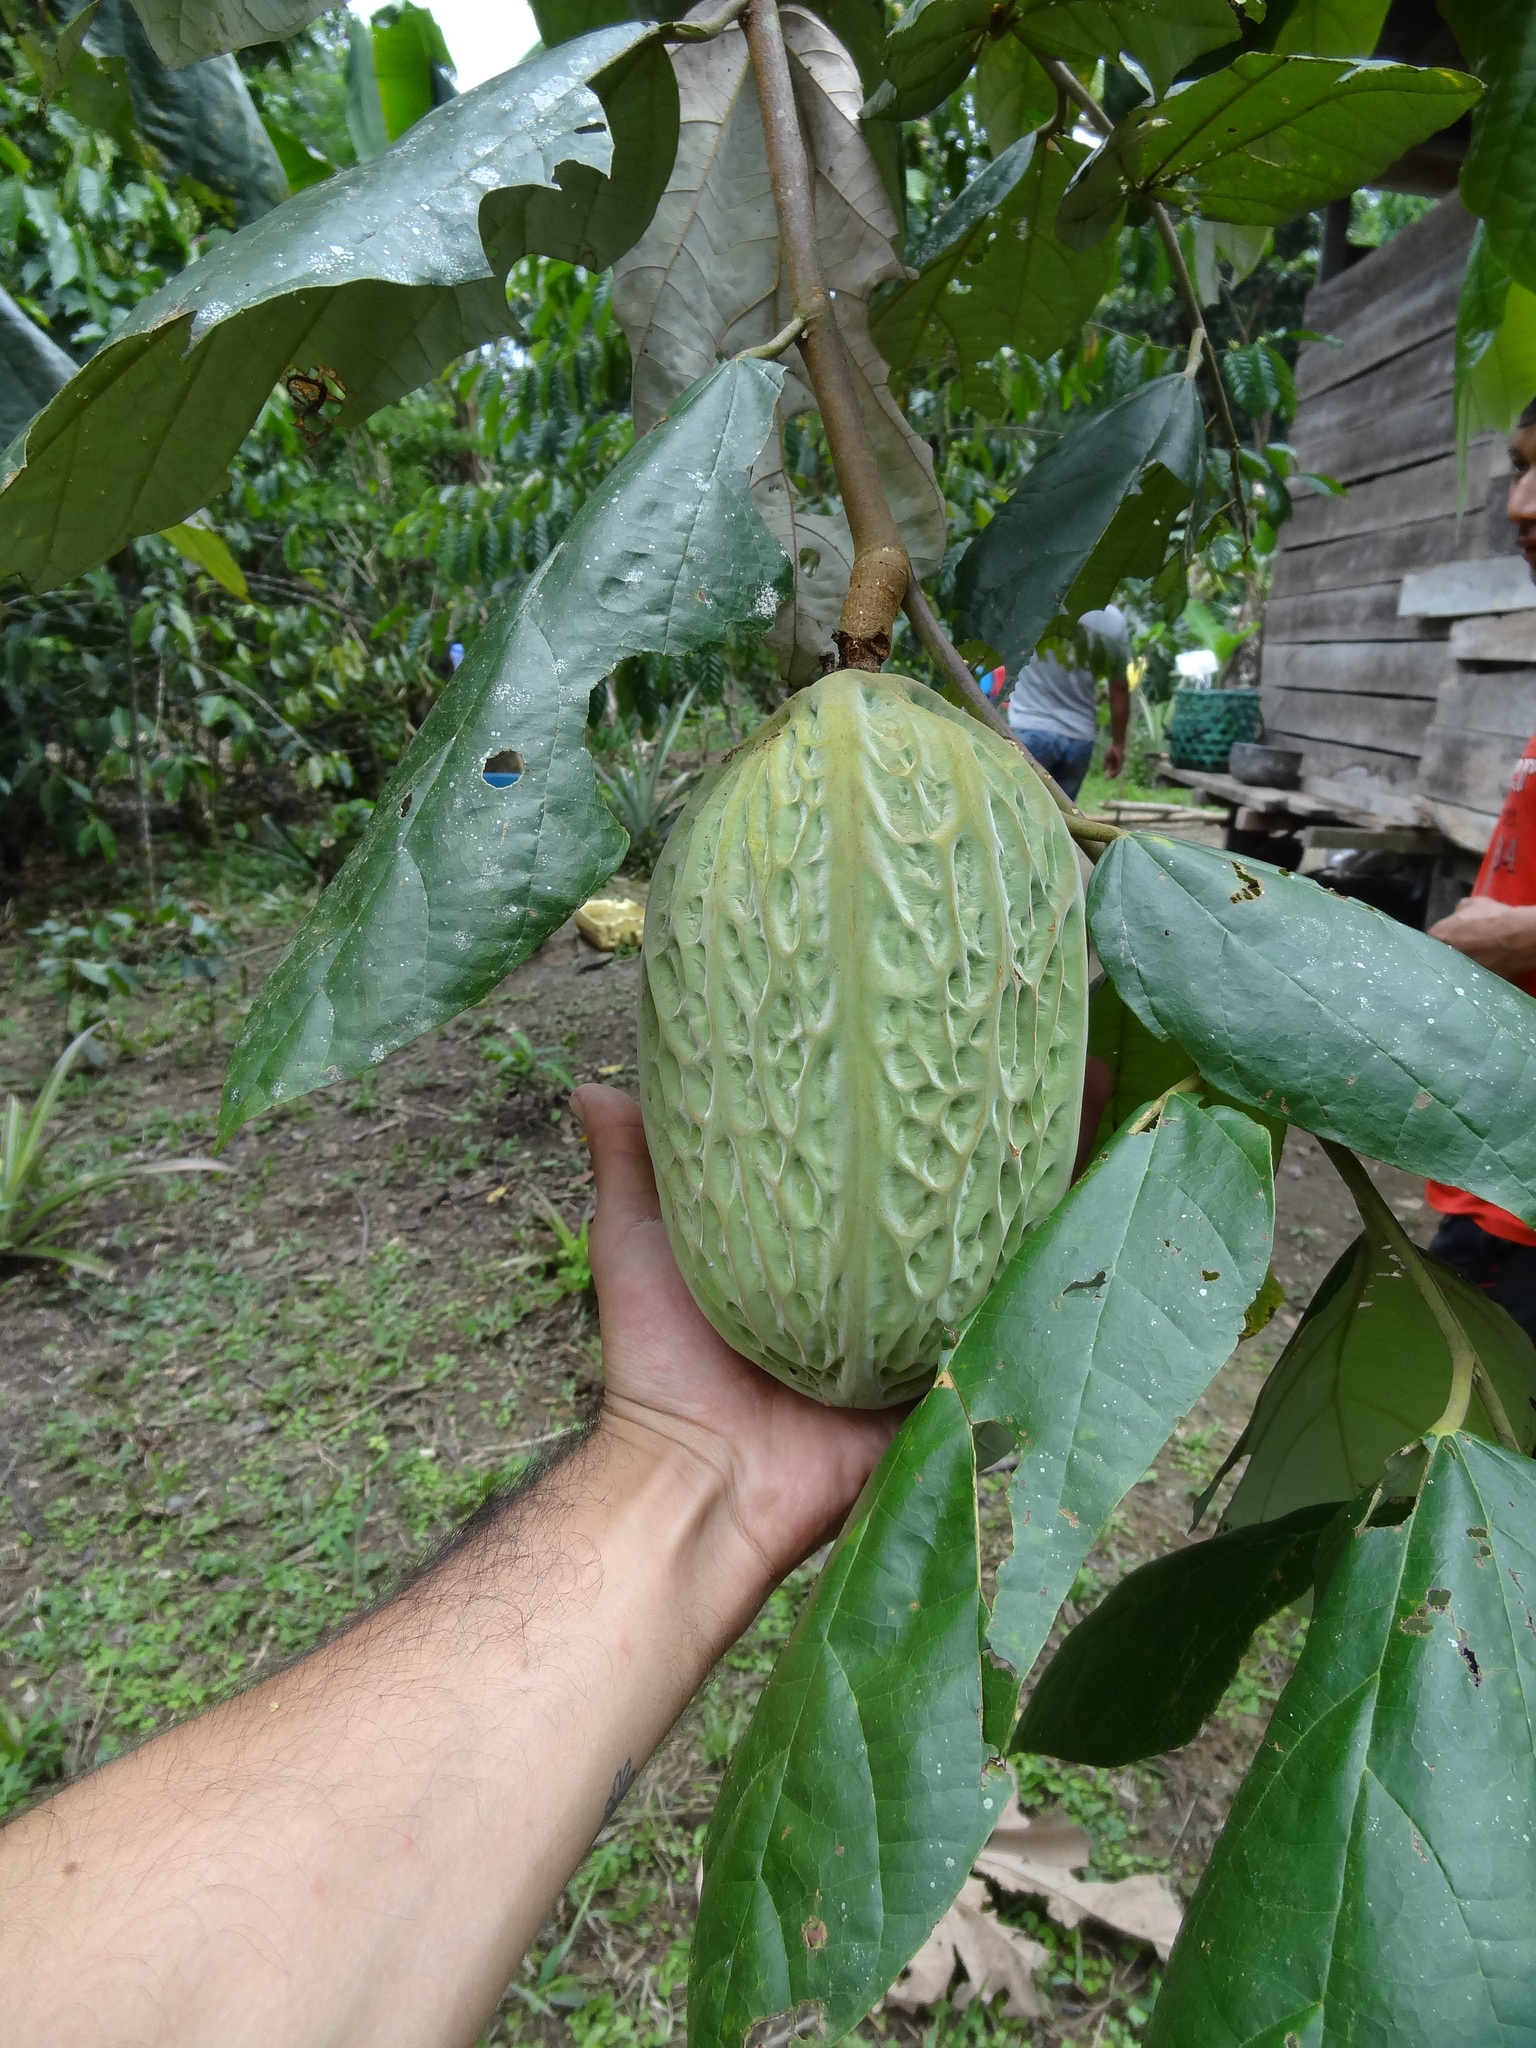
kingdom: Plantae
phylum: Tracheophyta
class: Magnoliopsida
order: Malvales
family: Malvaceae
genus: Theobroma
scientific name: Theobroma bicolor
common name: Macambo tree
